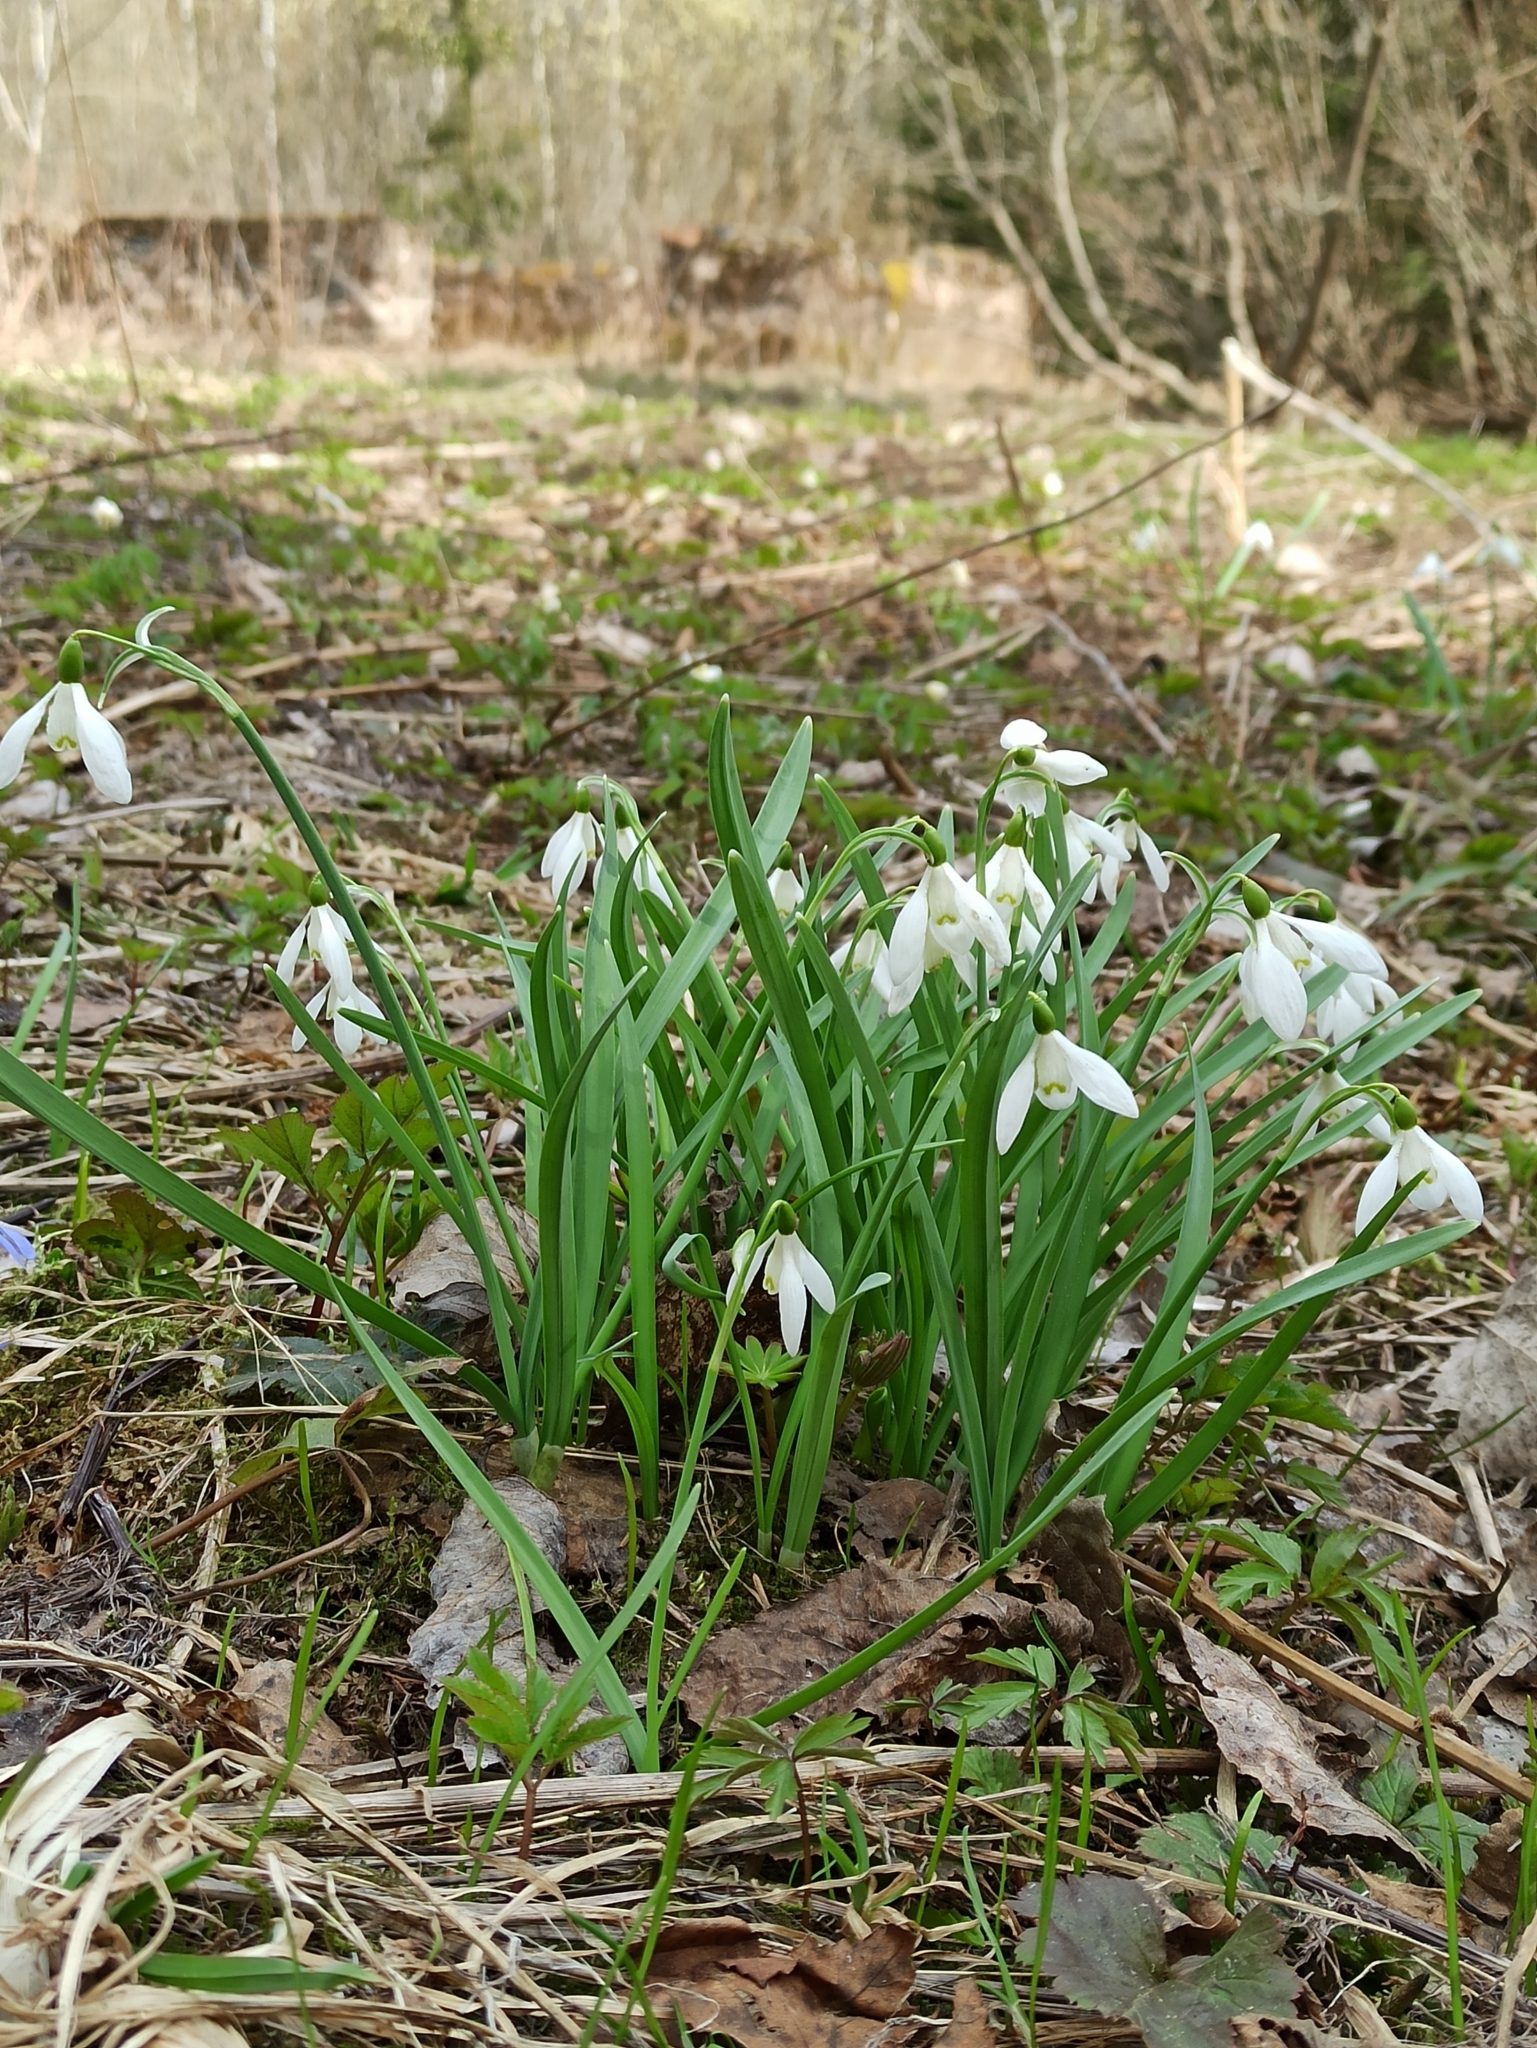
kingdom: Plantae
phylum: Tracheophyta
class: Liliopsida
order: Asparagales
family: Amaryllidaceae
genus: Galanthus
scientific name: Galanthus nivalis
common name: Snowdrop
